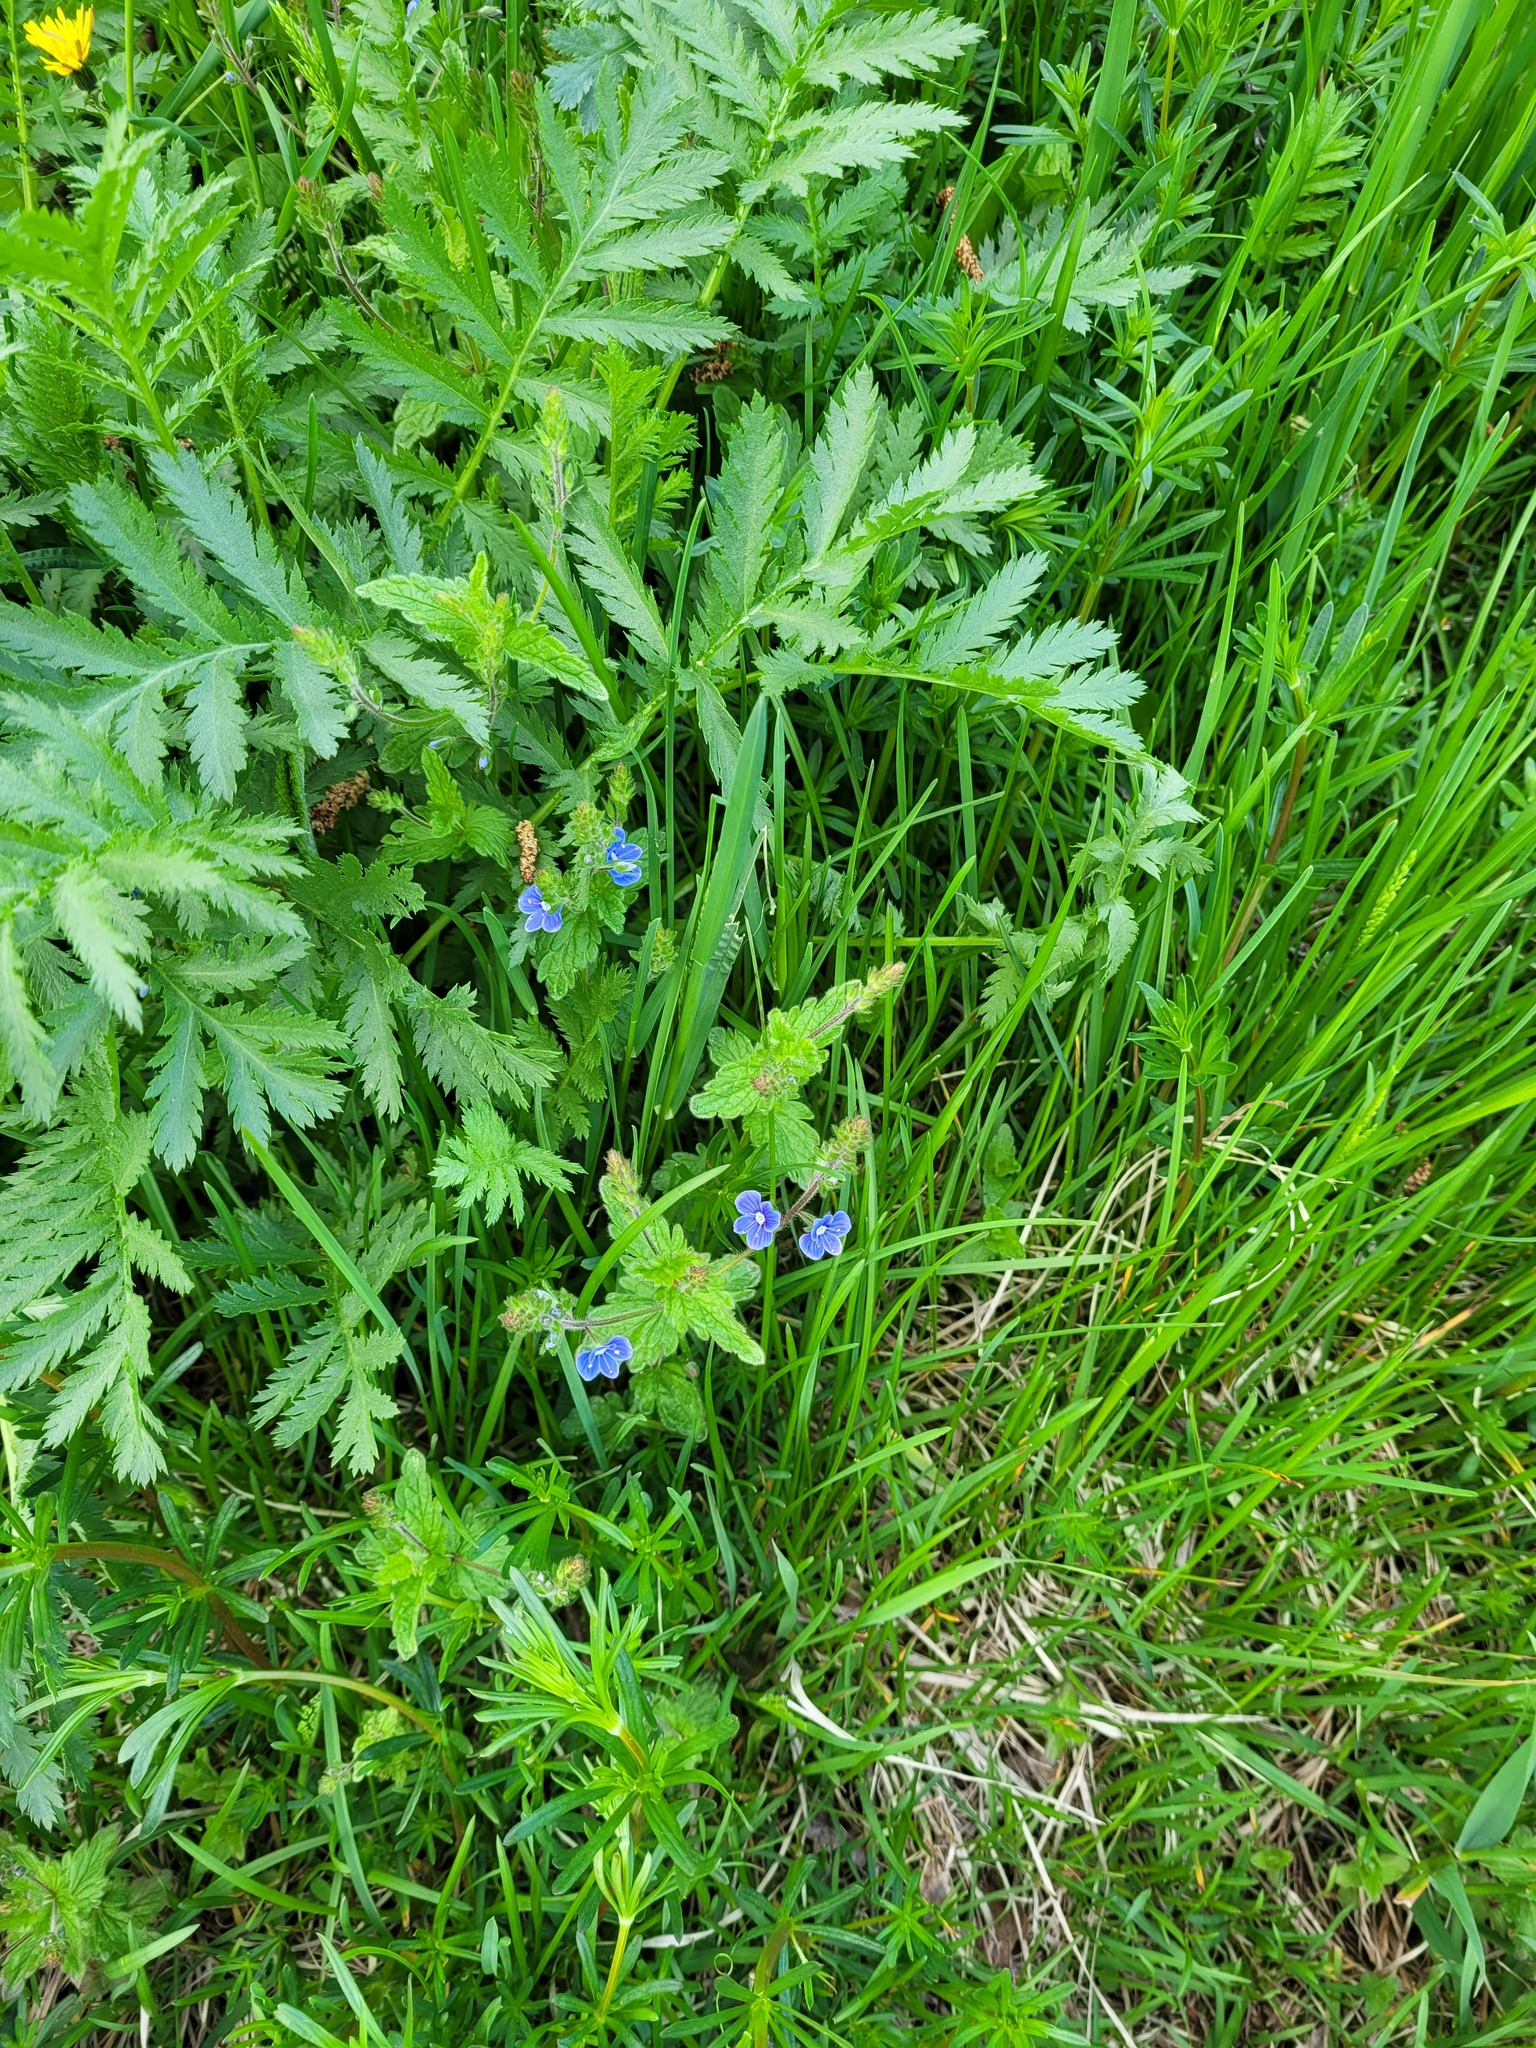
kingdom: Plantae
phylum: Tracheophyta
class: Magnoliopsida
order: Lamiales
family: Plantaginaceae
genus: Veronica
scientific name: Veronica chamaedrys
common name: Germander speedwell
